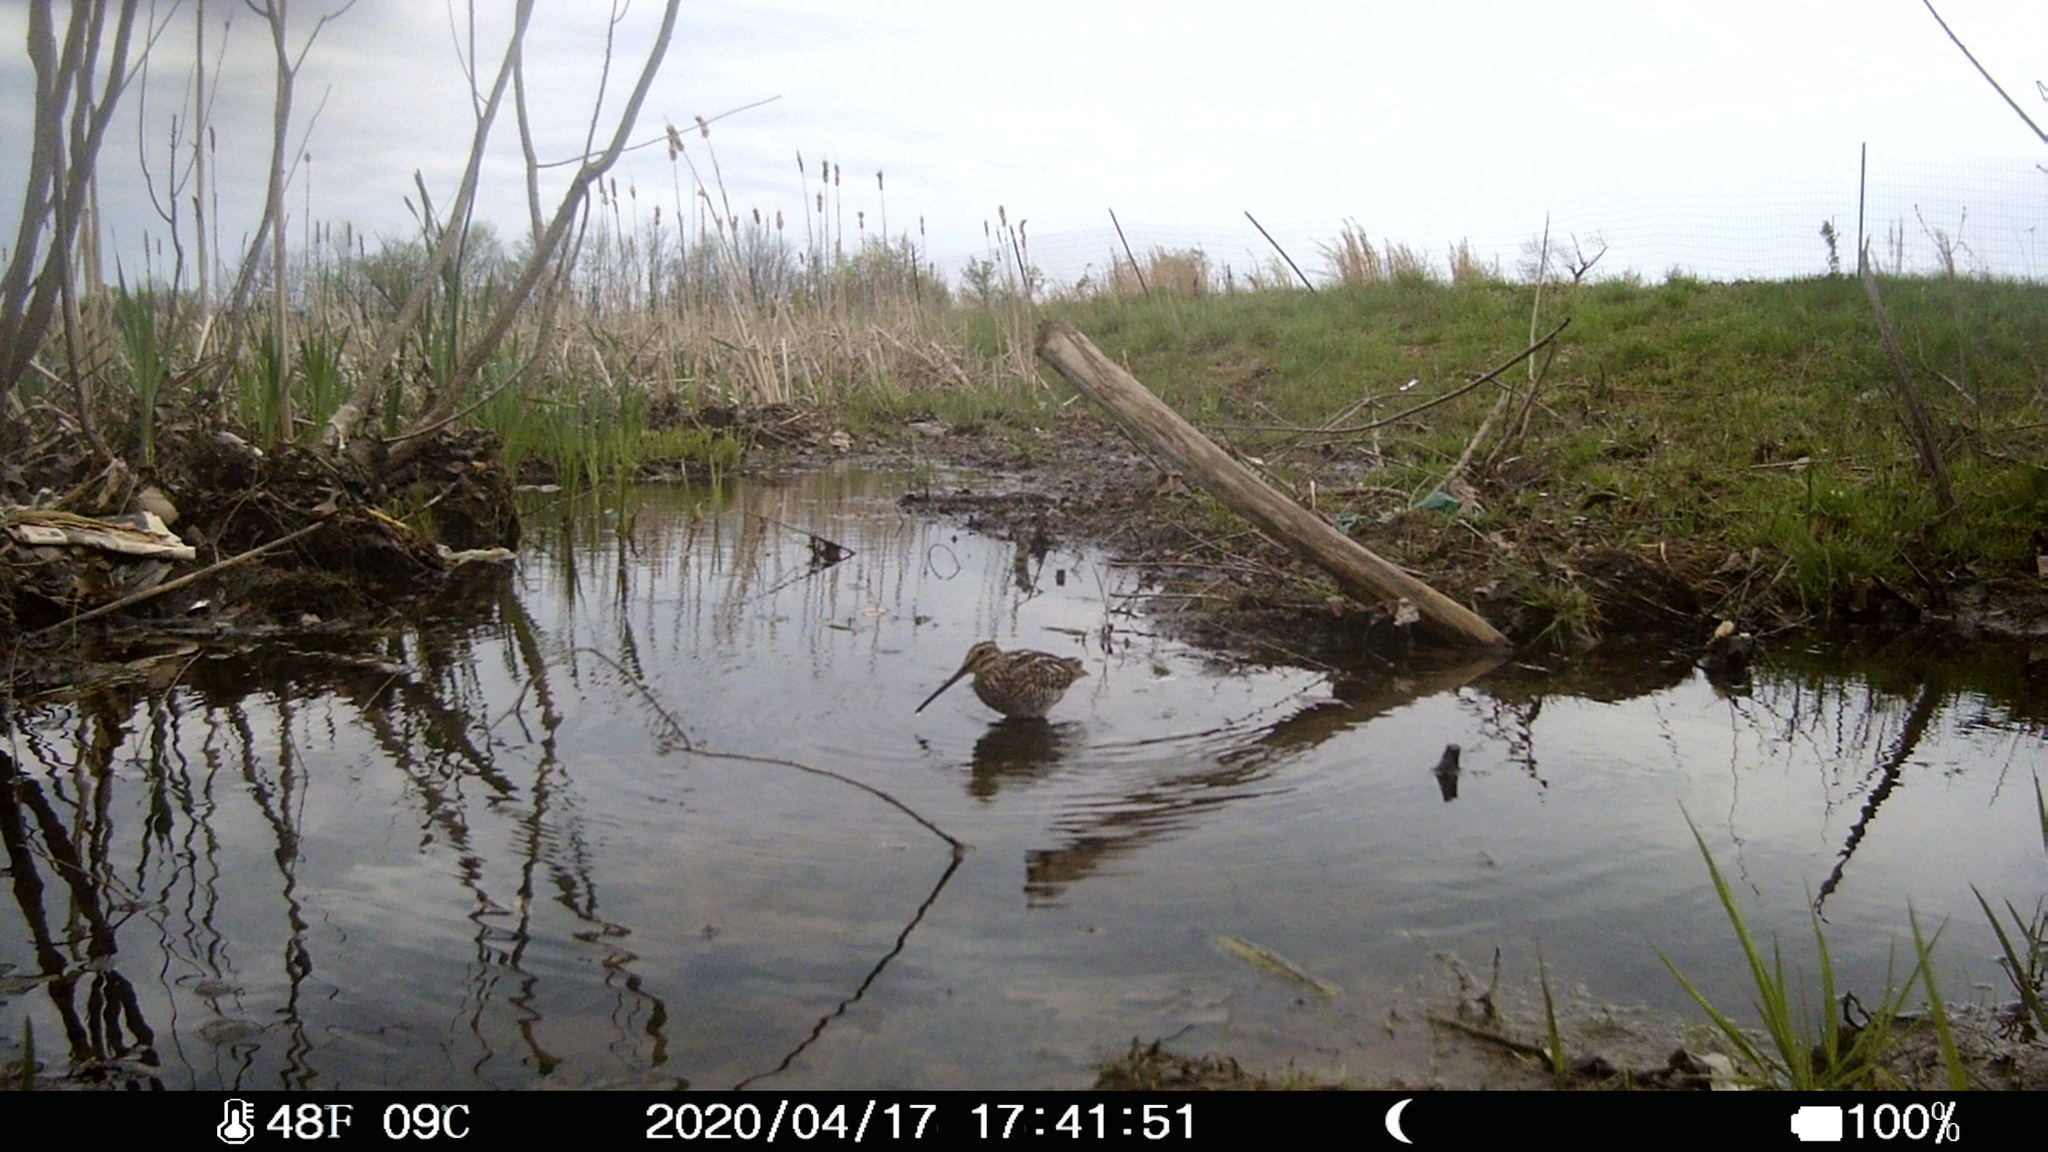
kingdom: Animalia
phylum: Chordata
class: Aves
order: Charadriiformes
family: Scolopacidae
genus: Gallinago
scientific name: Gallinago delicata
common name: Wilson's snipe
